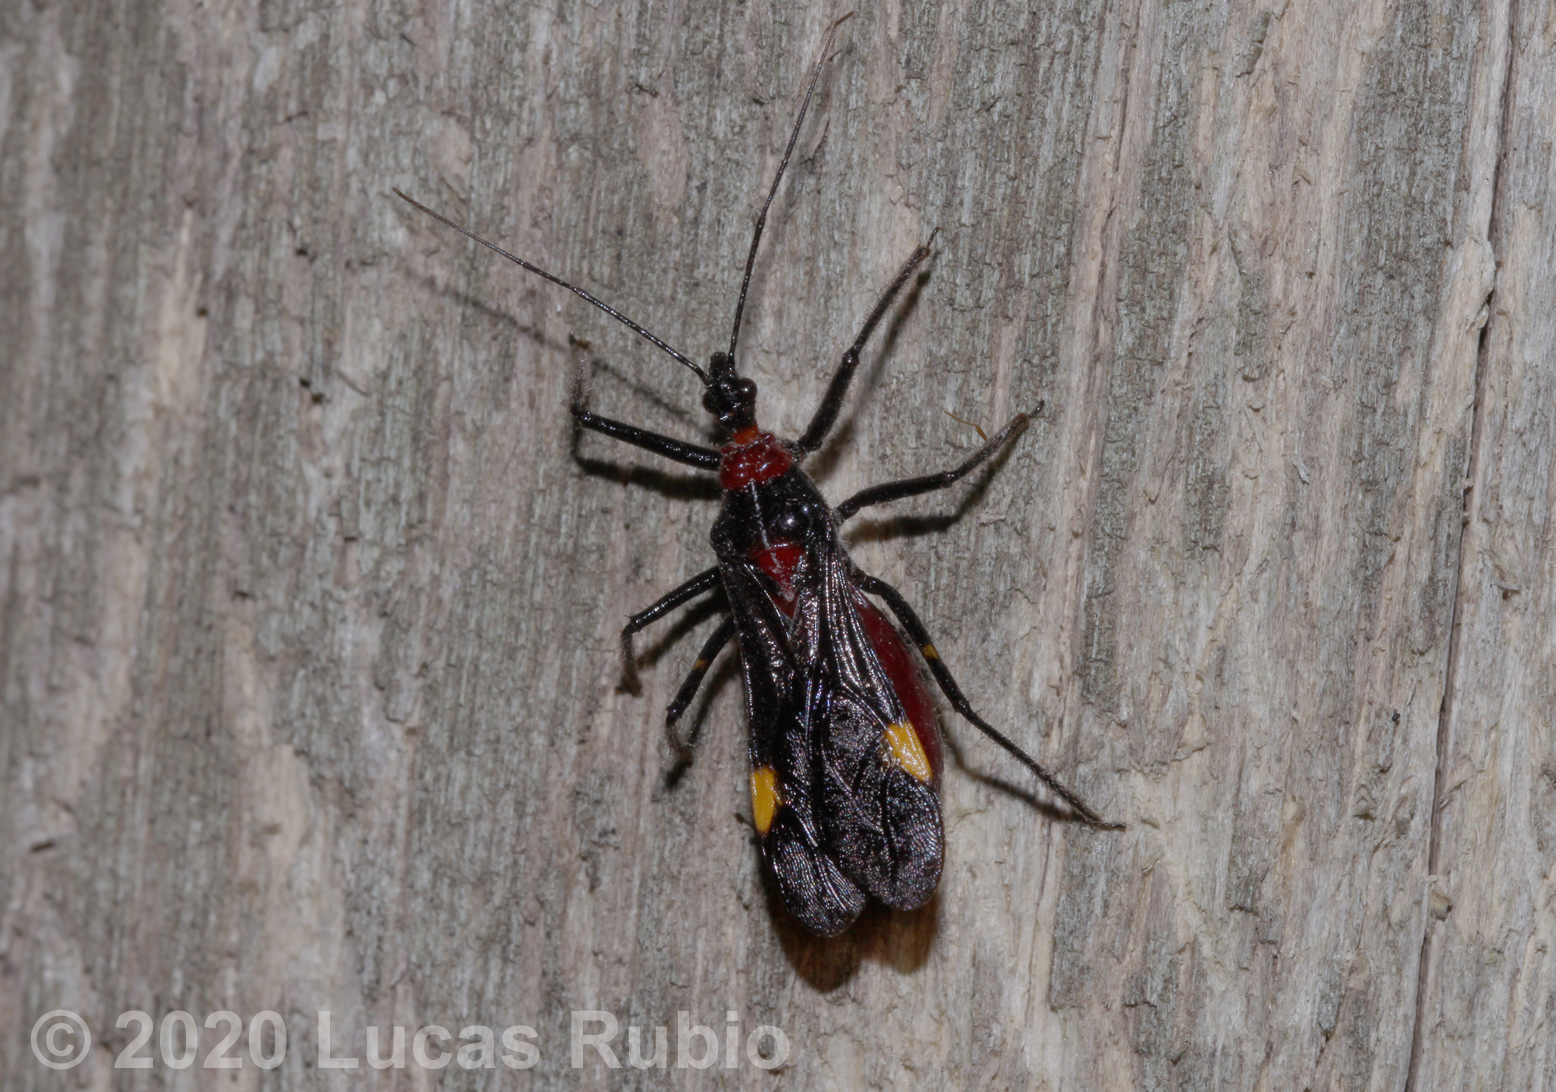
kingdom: Animalia
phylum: Arthropoda
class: Insecta
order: Hemiptera
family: Reduviidae
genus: Graptocleptes
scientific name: Graptocleptes bicolor
